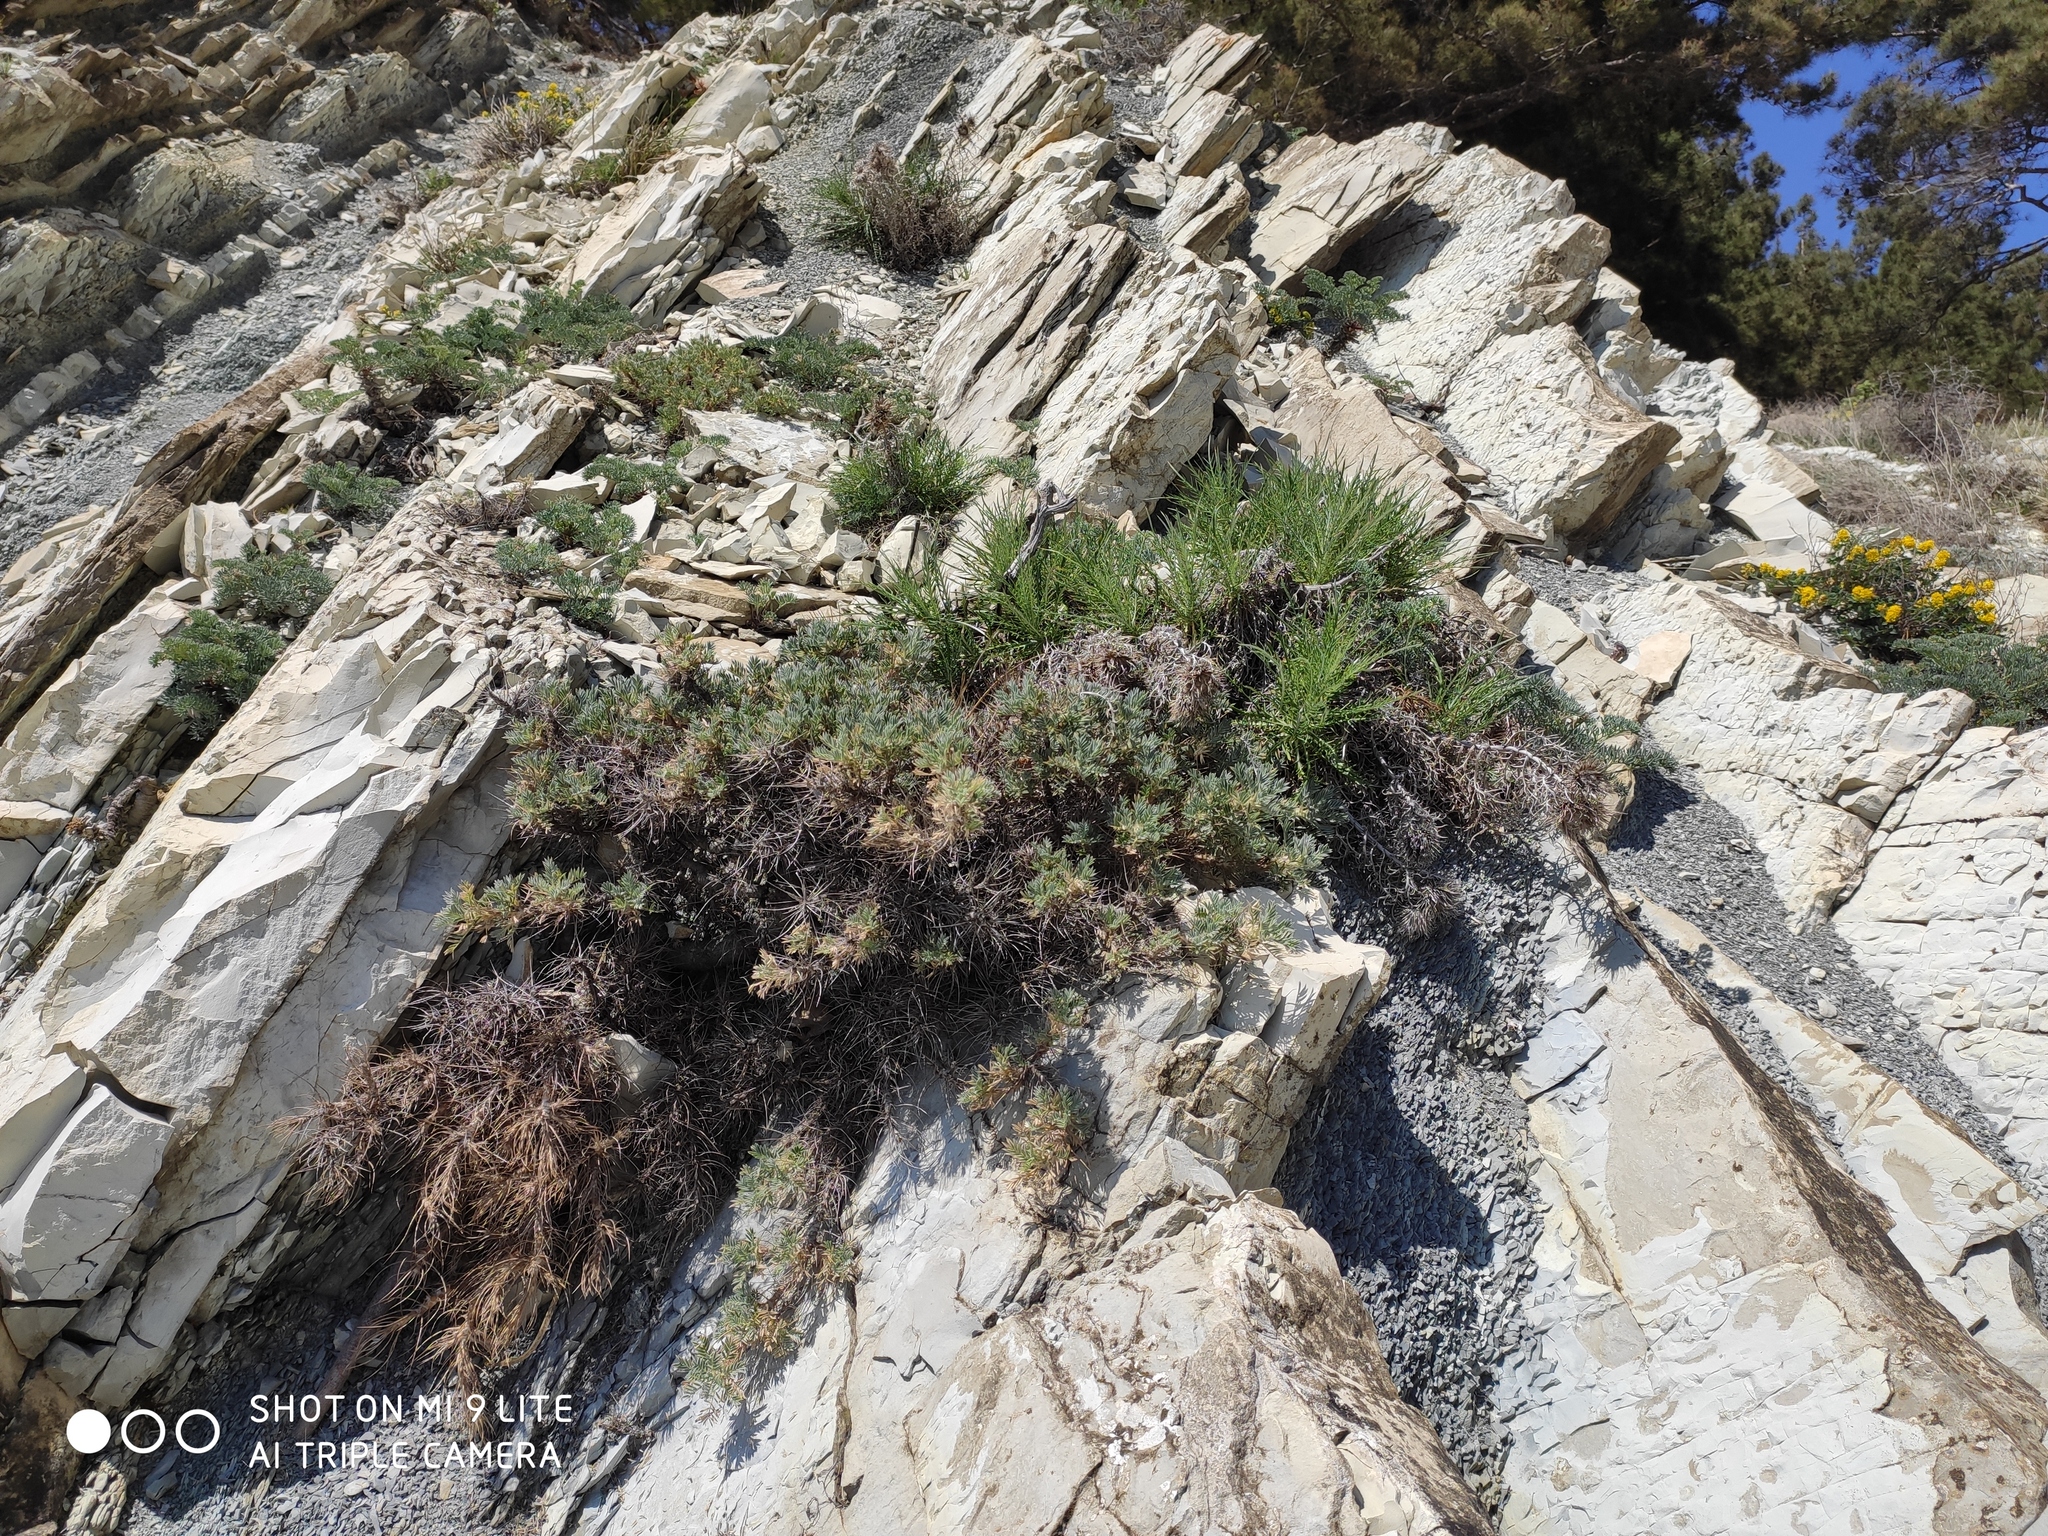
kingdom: Plantae
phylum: Tracheophyta
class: Magnoliopsida
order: Fabales
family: Fabaceae
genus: Astragalus
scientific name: Astragalus arnacanthoides
